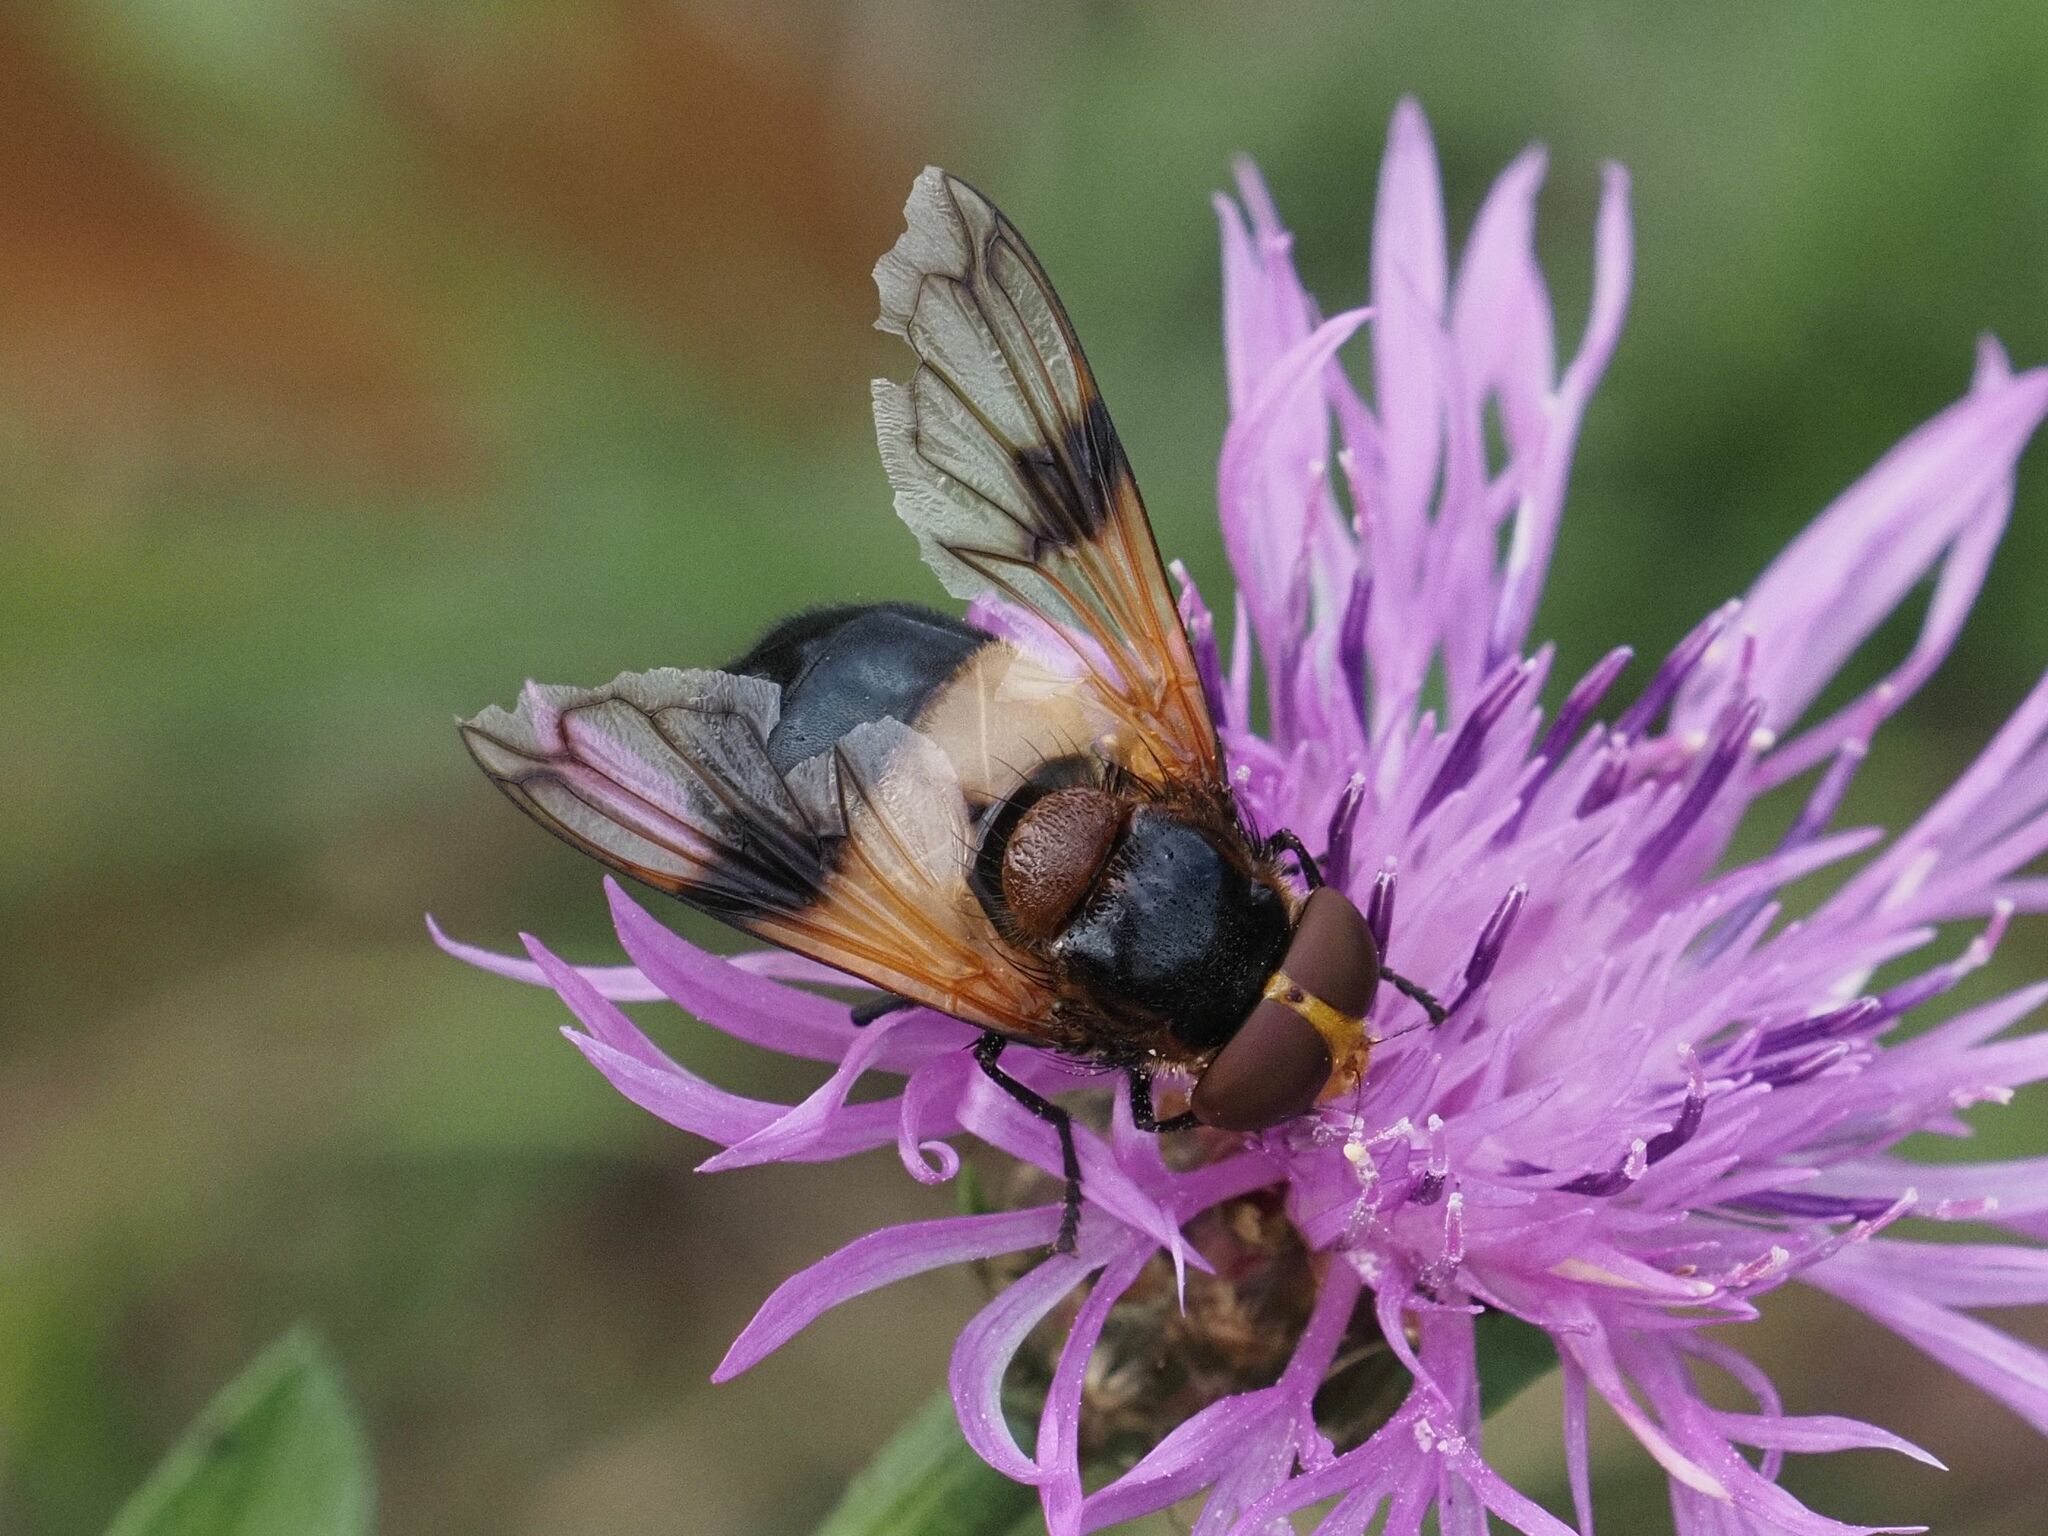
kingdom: Animalia
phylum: Arthropoda
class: Insecta
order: Diptera
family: Syrphidae
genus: Volucella
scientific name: Volucella pellucens
